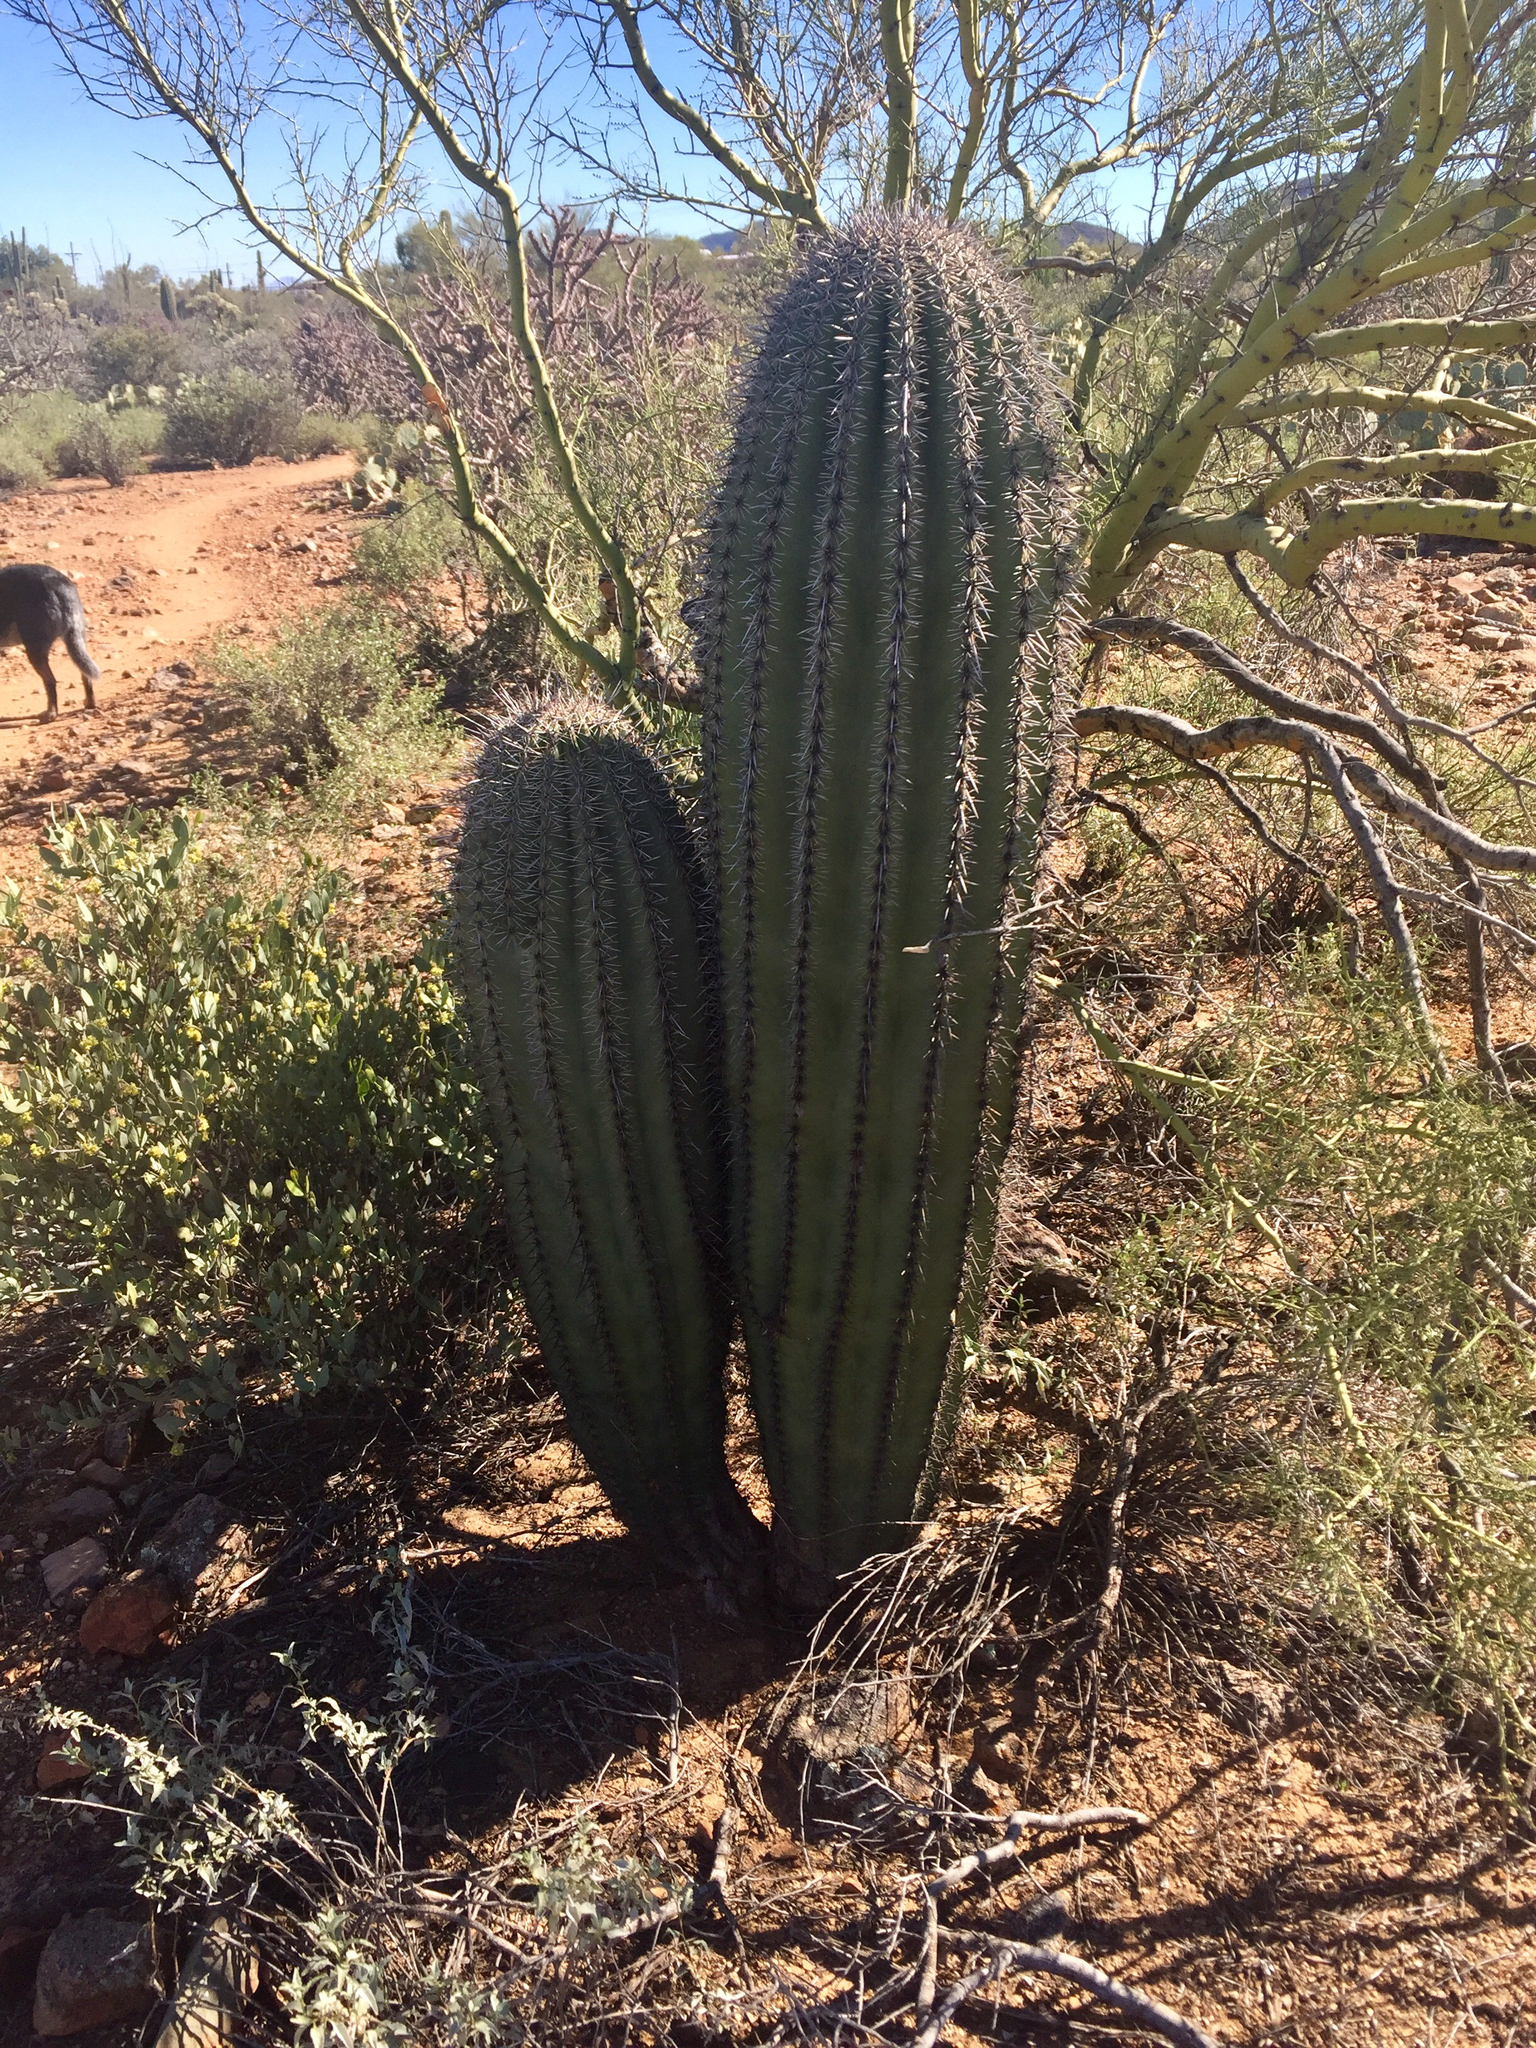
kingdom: Plantae
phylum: Tracheophyta
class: Magnoliopsida
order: Caryophyllales
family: Cactaceae
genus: Carnegiea
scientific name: Carnegiea gigantea
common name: Saguaro
